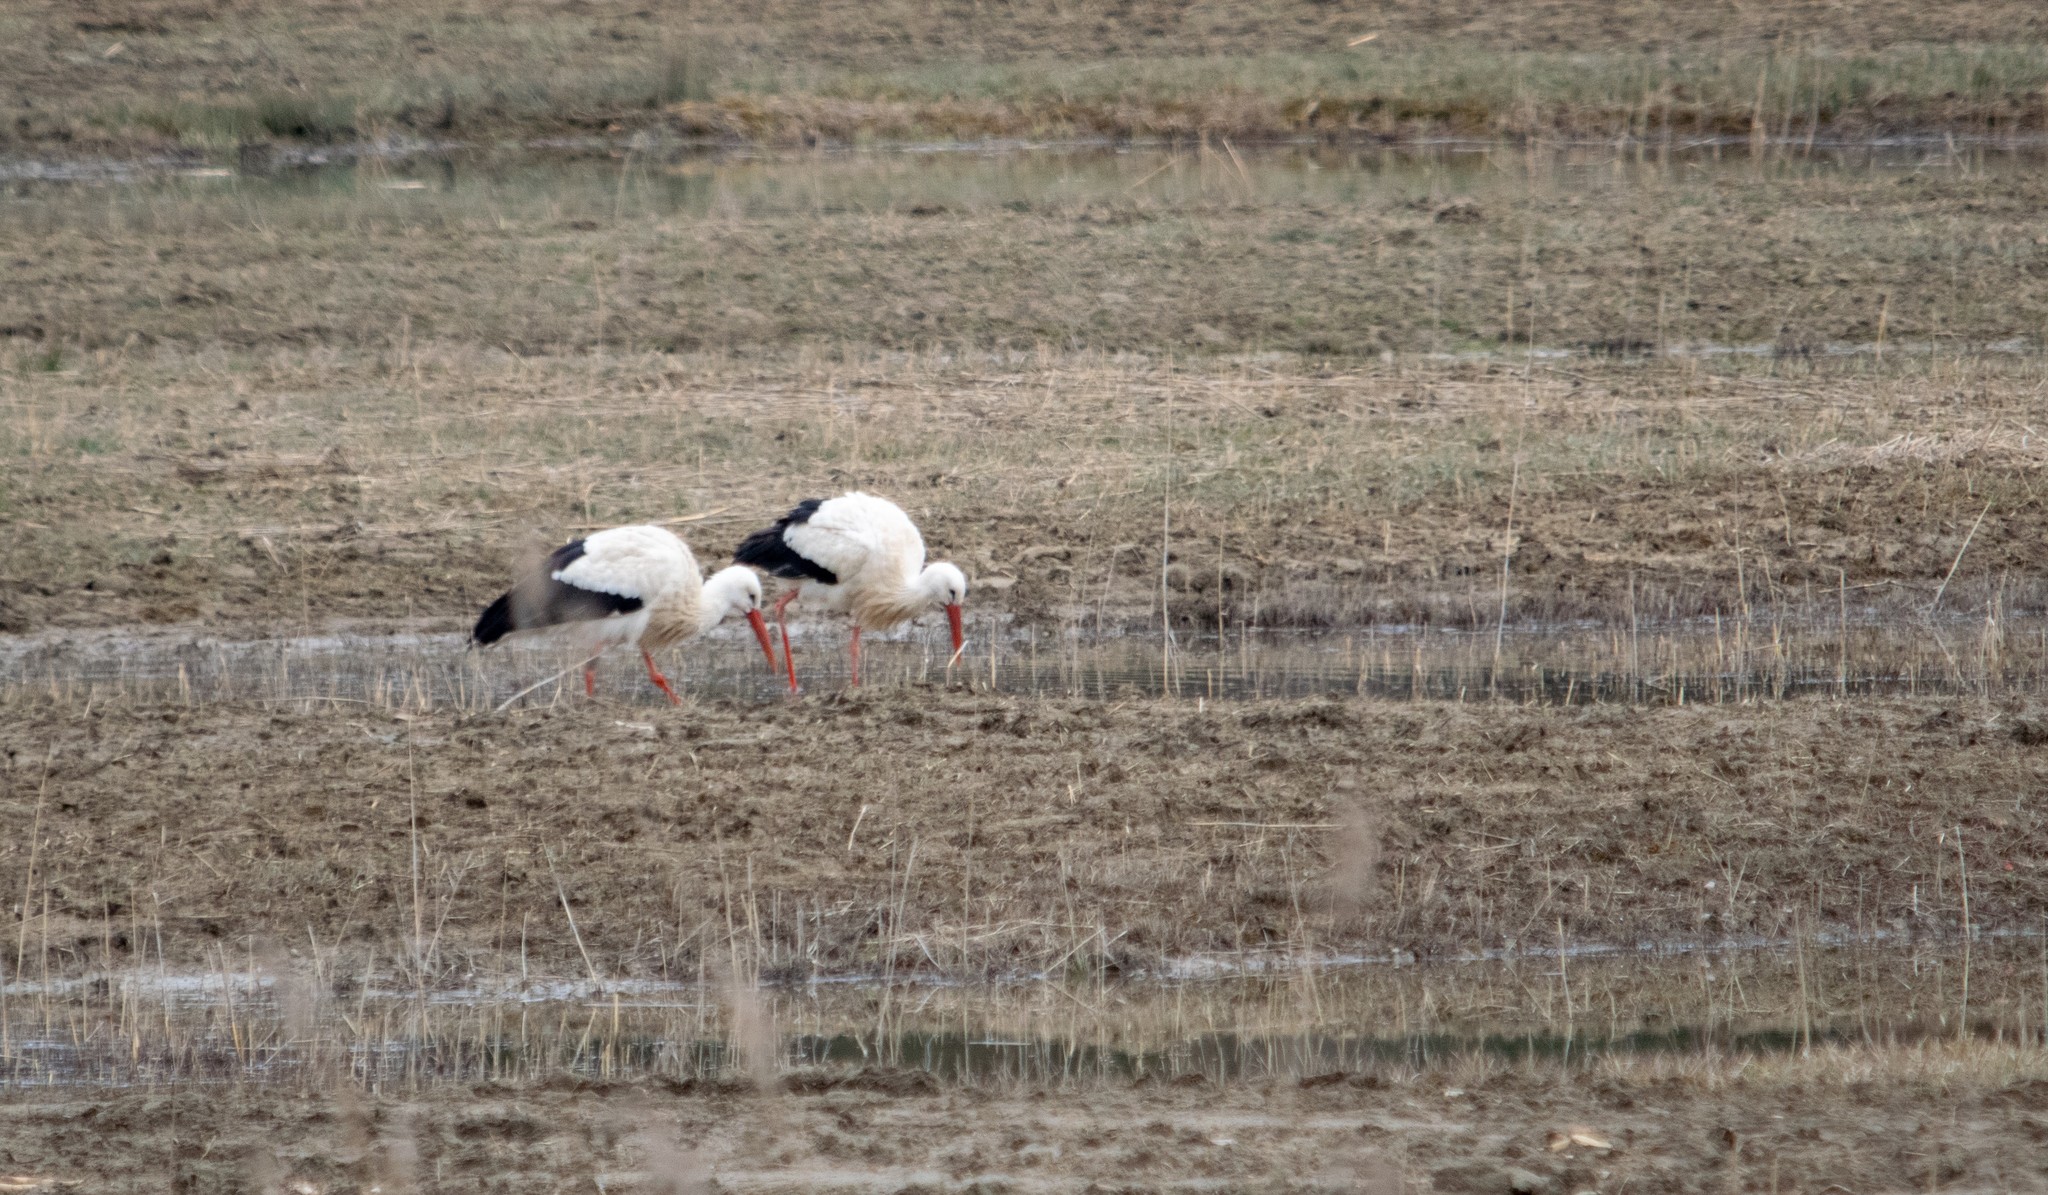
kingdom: Animalia
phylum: Chordata
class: Aves
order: Ciconiiformes
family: Ciconiidae
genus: Ciconia
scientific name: Ciconia ciconia
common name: White stork
